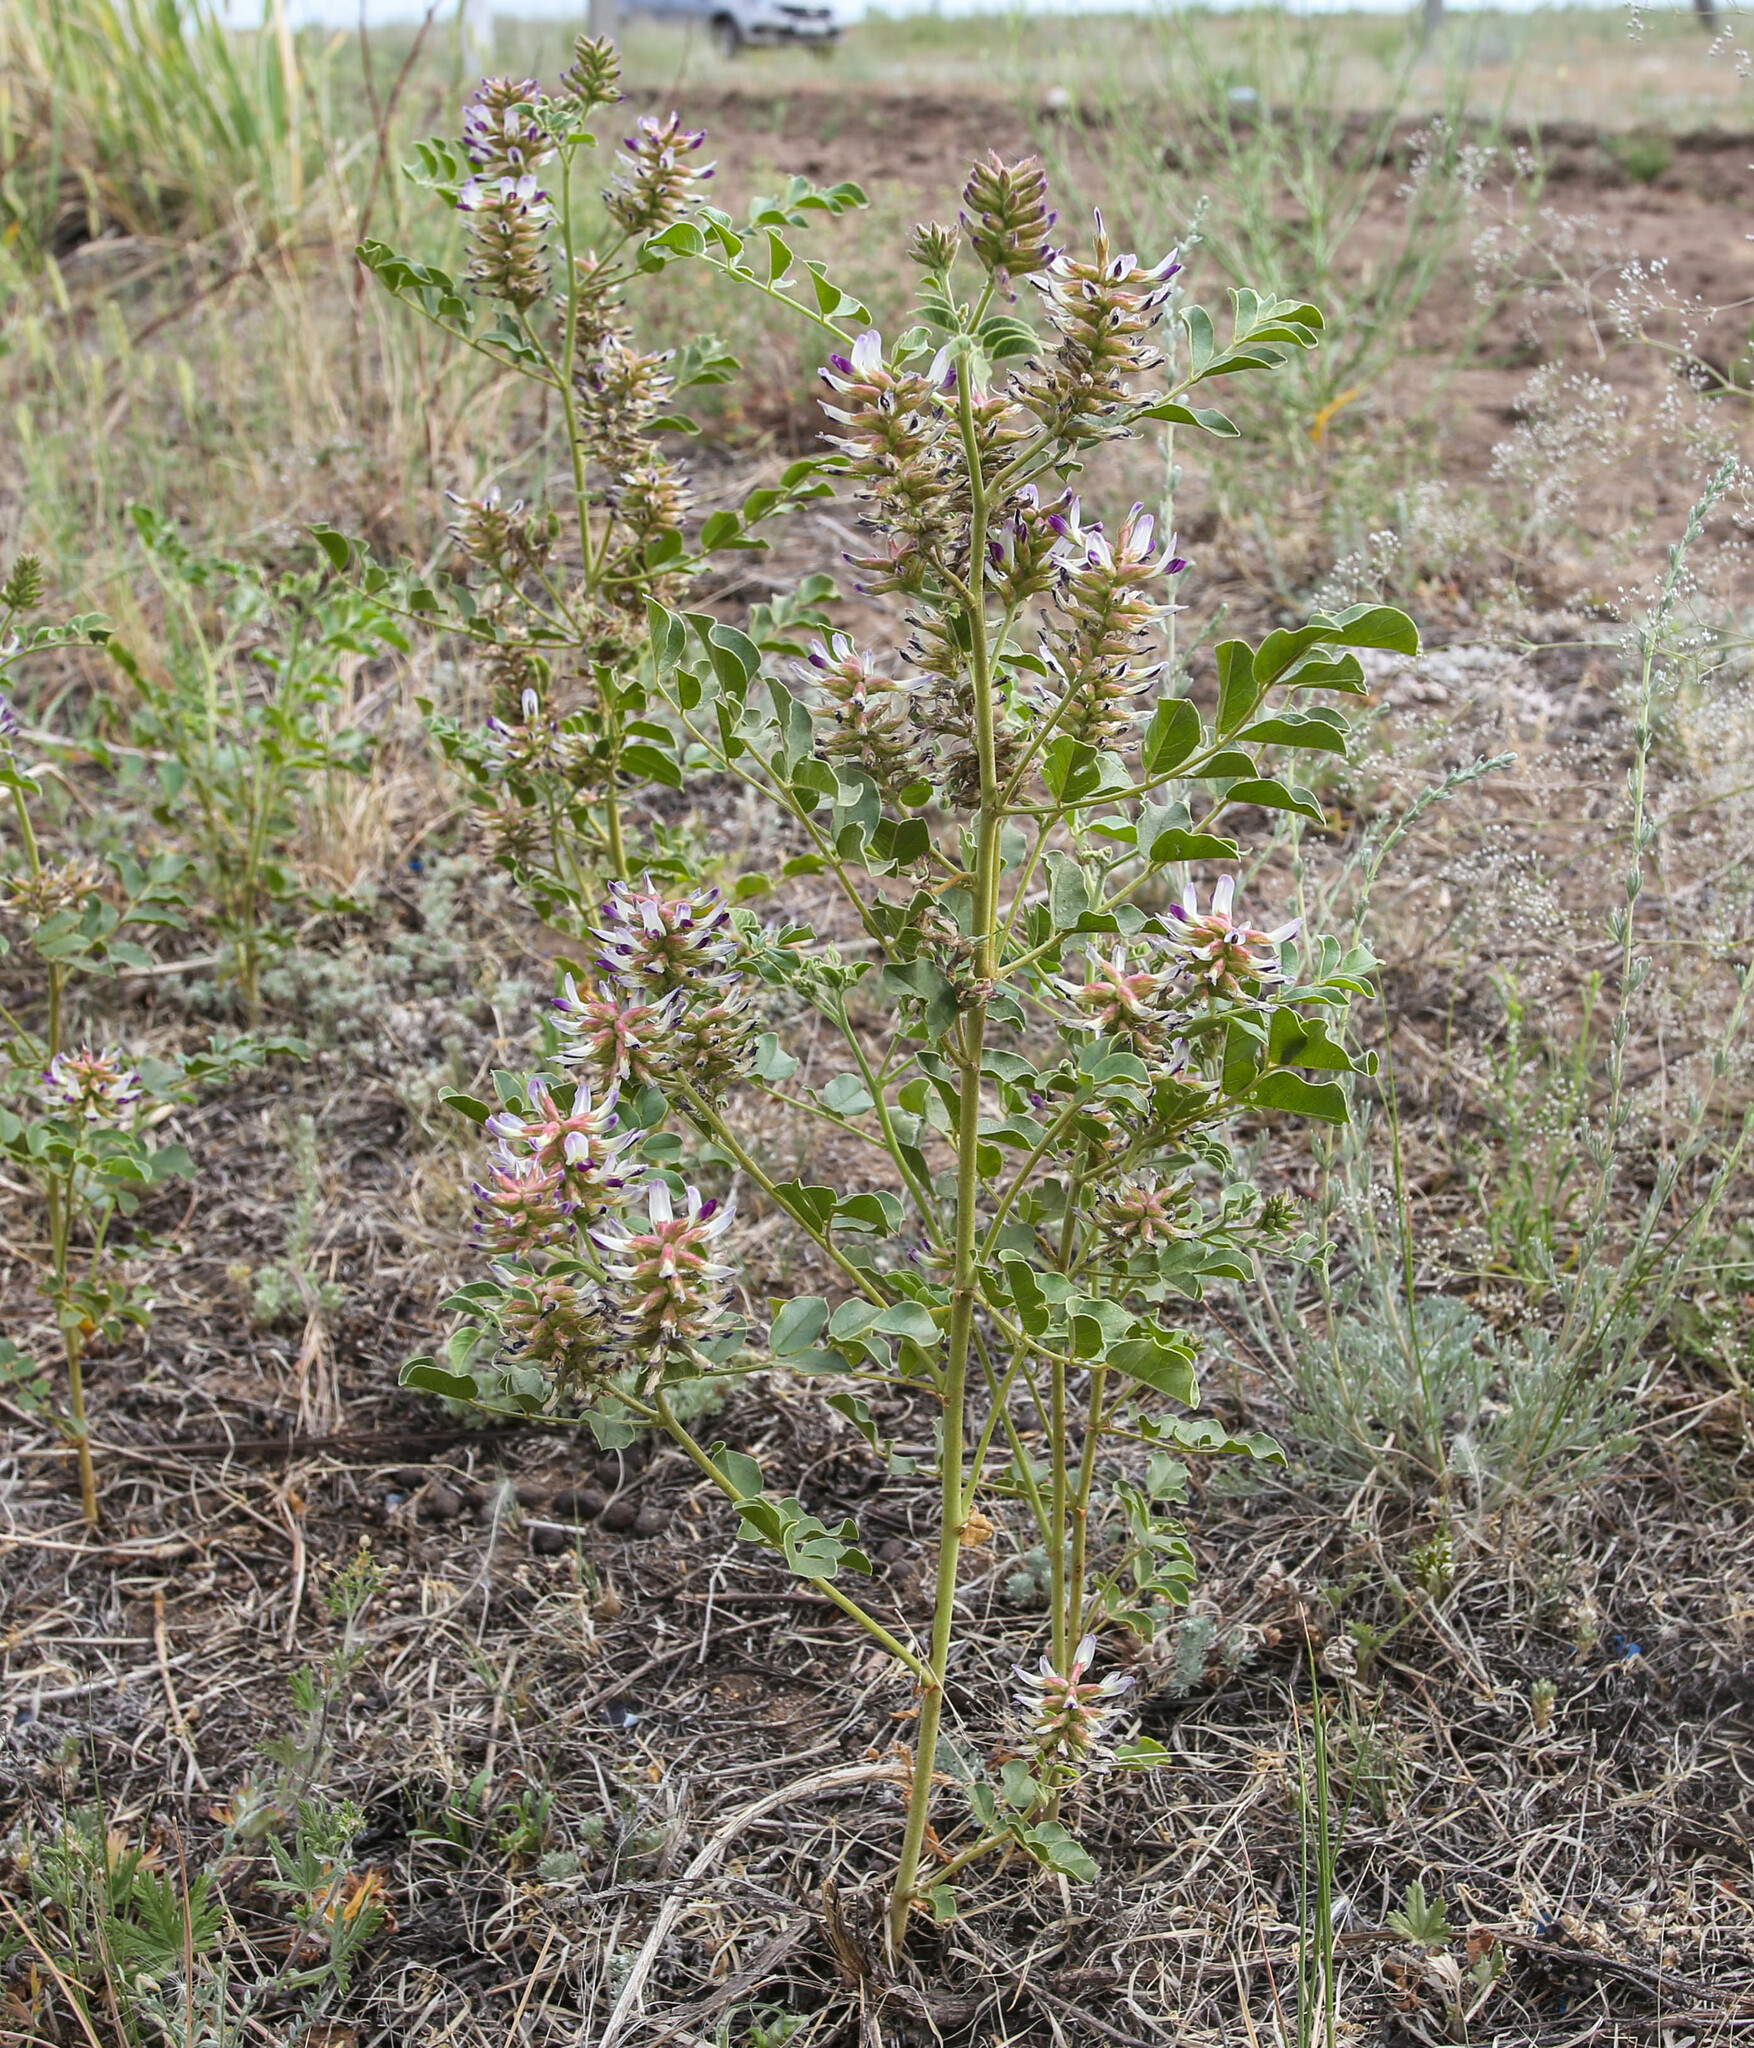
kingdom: Plantae
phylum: Tracheophyta
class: Magnoliopsida
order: Fabales
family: Fabaceae
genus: Glycyrrhiza
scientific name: Glycyrrhiza uralensis
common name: Chinese licorice
